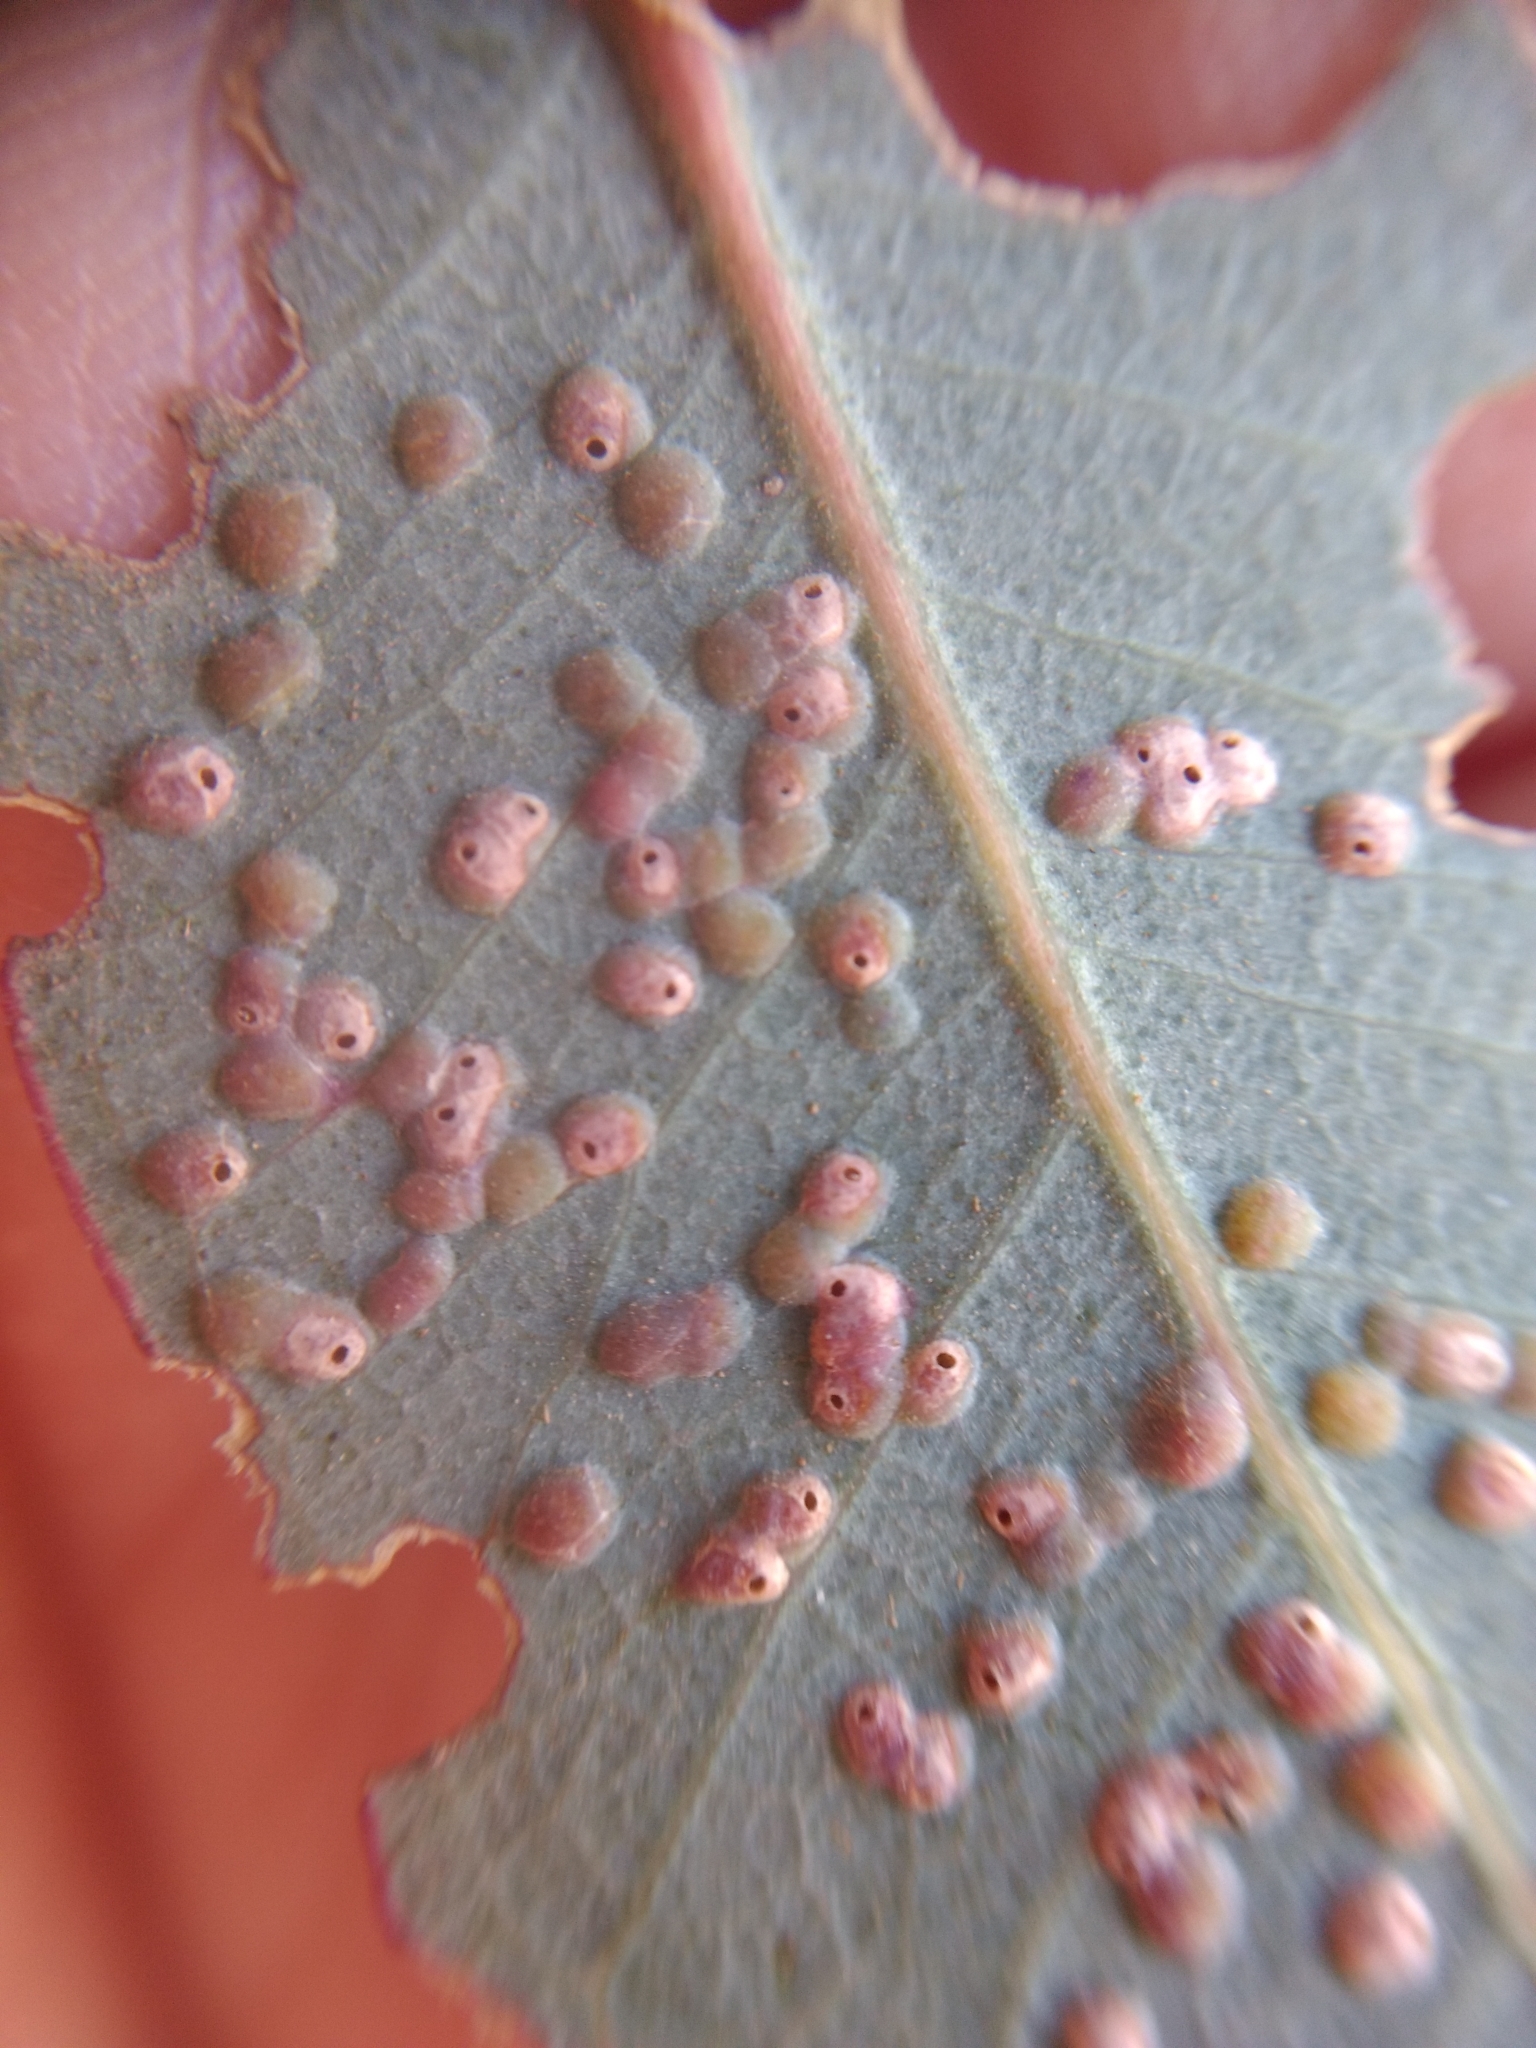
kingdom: Animalia
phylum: Arthropoda
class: Insecta
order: Hymenoptera
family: Eulophidae
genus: Ophelimus
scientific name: Ophelimus maskelli
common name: Gall wasp
